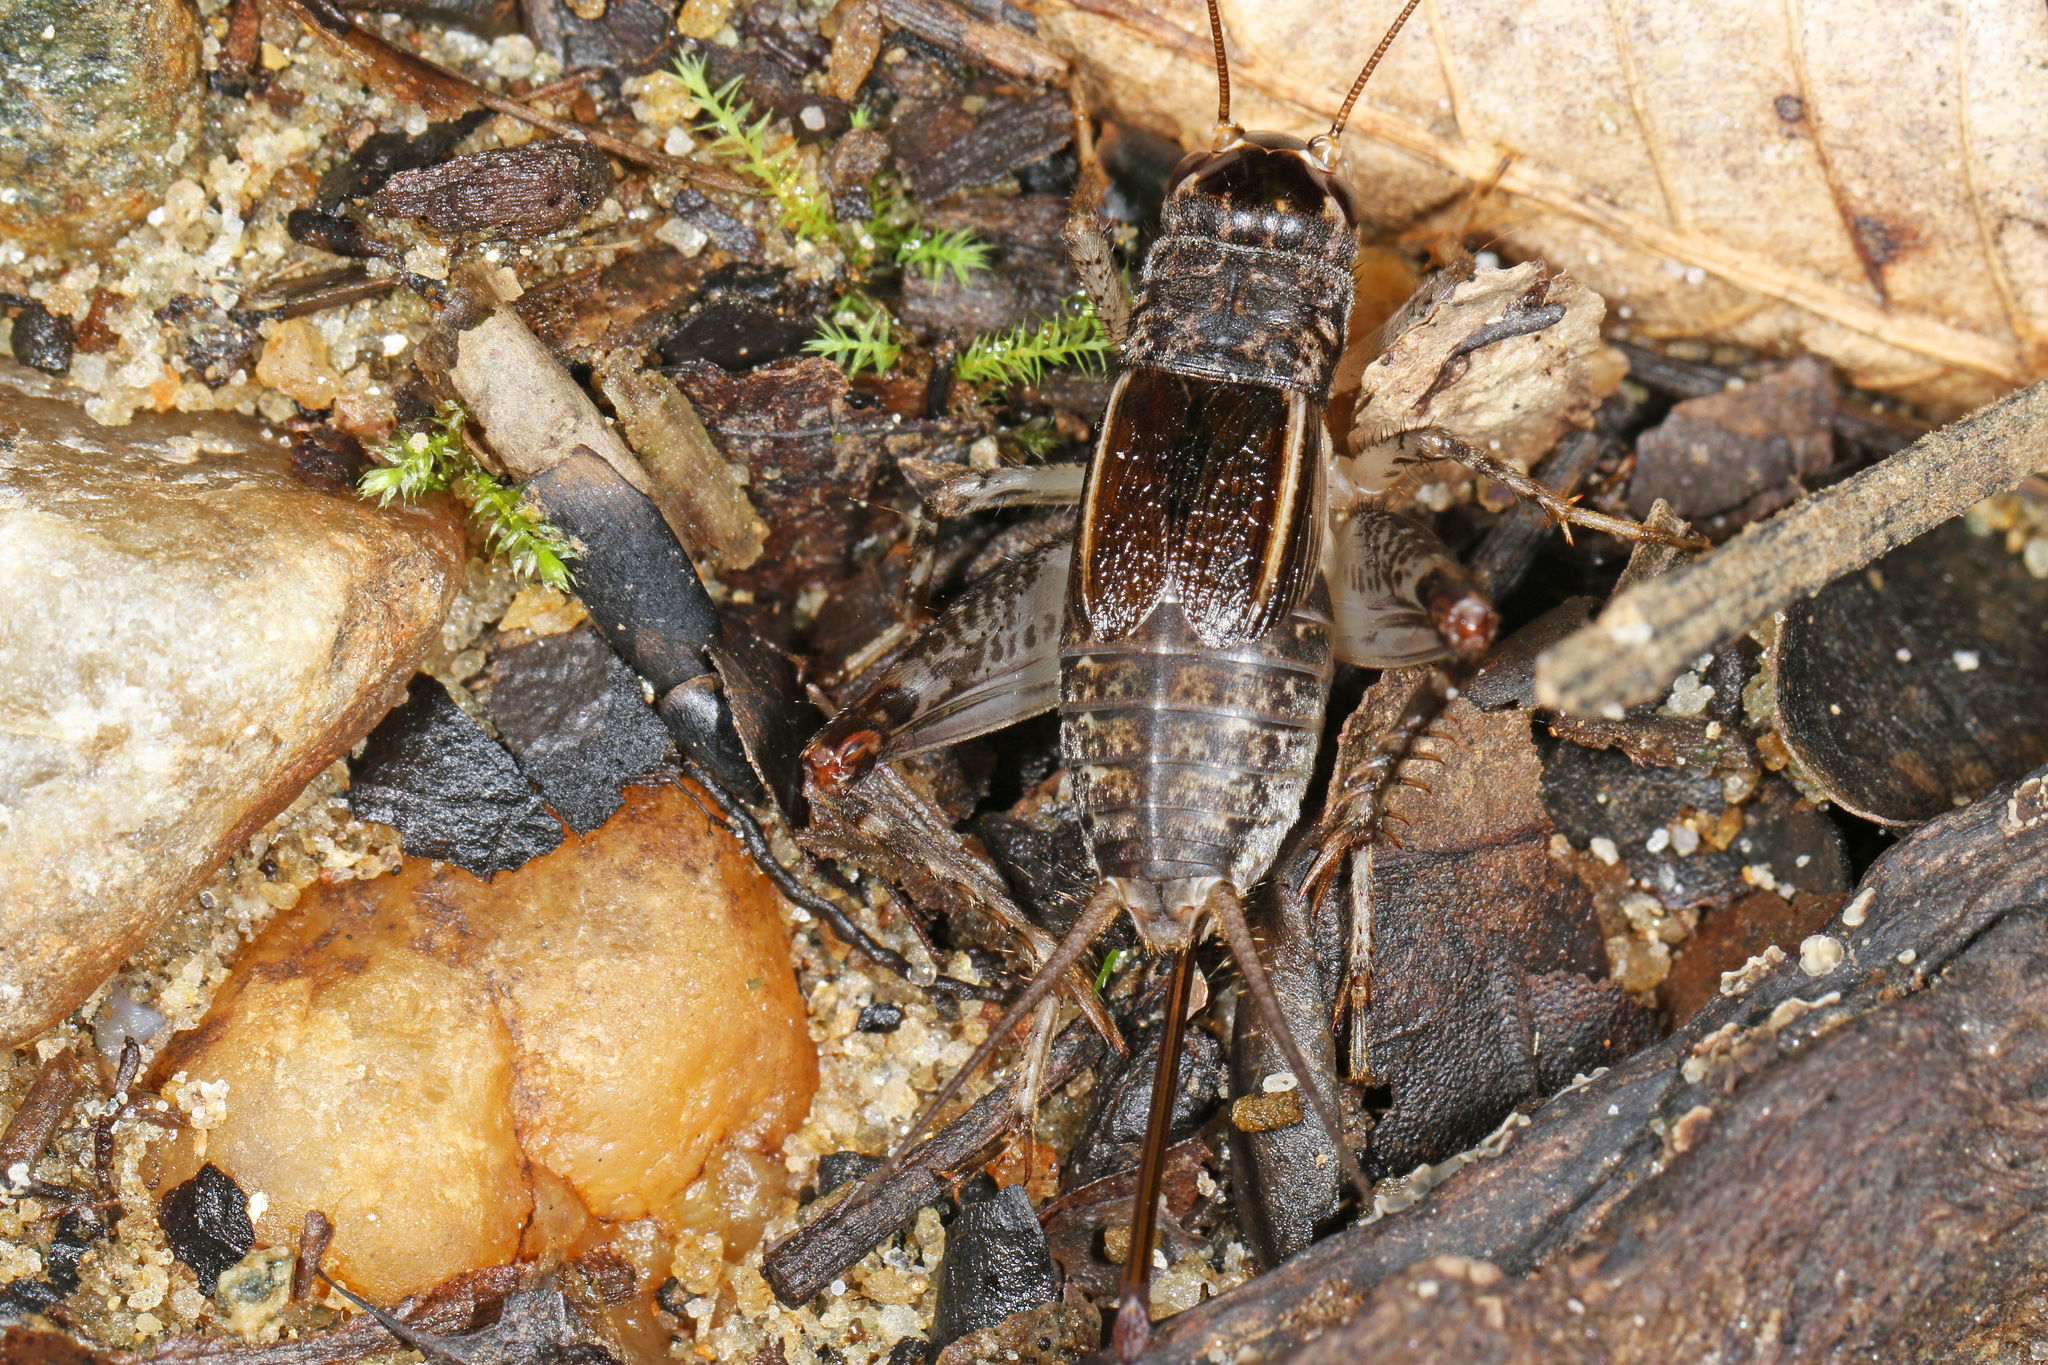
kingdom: Animalia
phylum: Arthropoda
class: Insecta
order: Orthoptera
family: Gryllidae
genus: Velarifictorus
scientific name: Velarifictorus micado
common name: Japanese burrowing cricket
